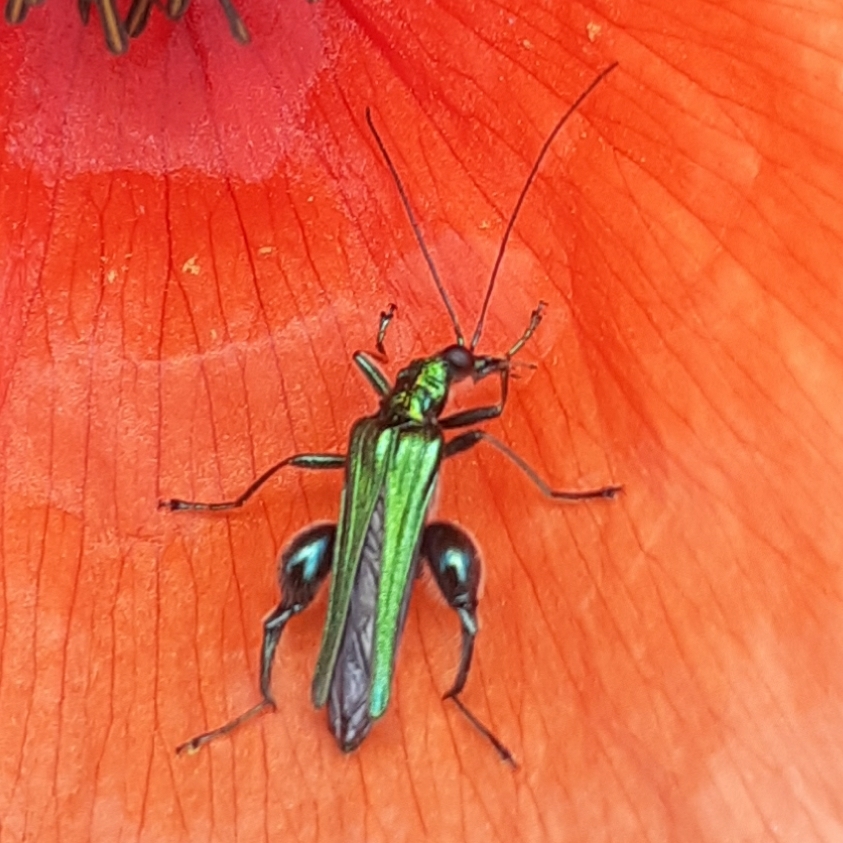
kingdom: Animalia
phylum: Arthropoda
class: Insecta
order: Coleoptera
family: Oedemeridae
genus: Oedemera
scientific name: Oedemera nobilis
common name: Swollen-thighed beetle
